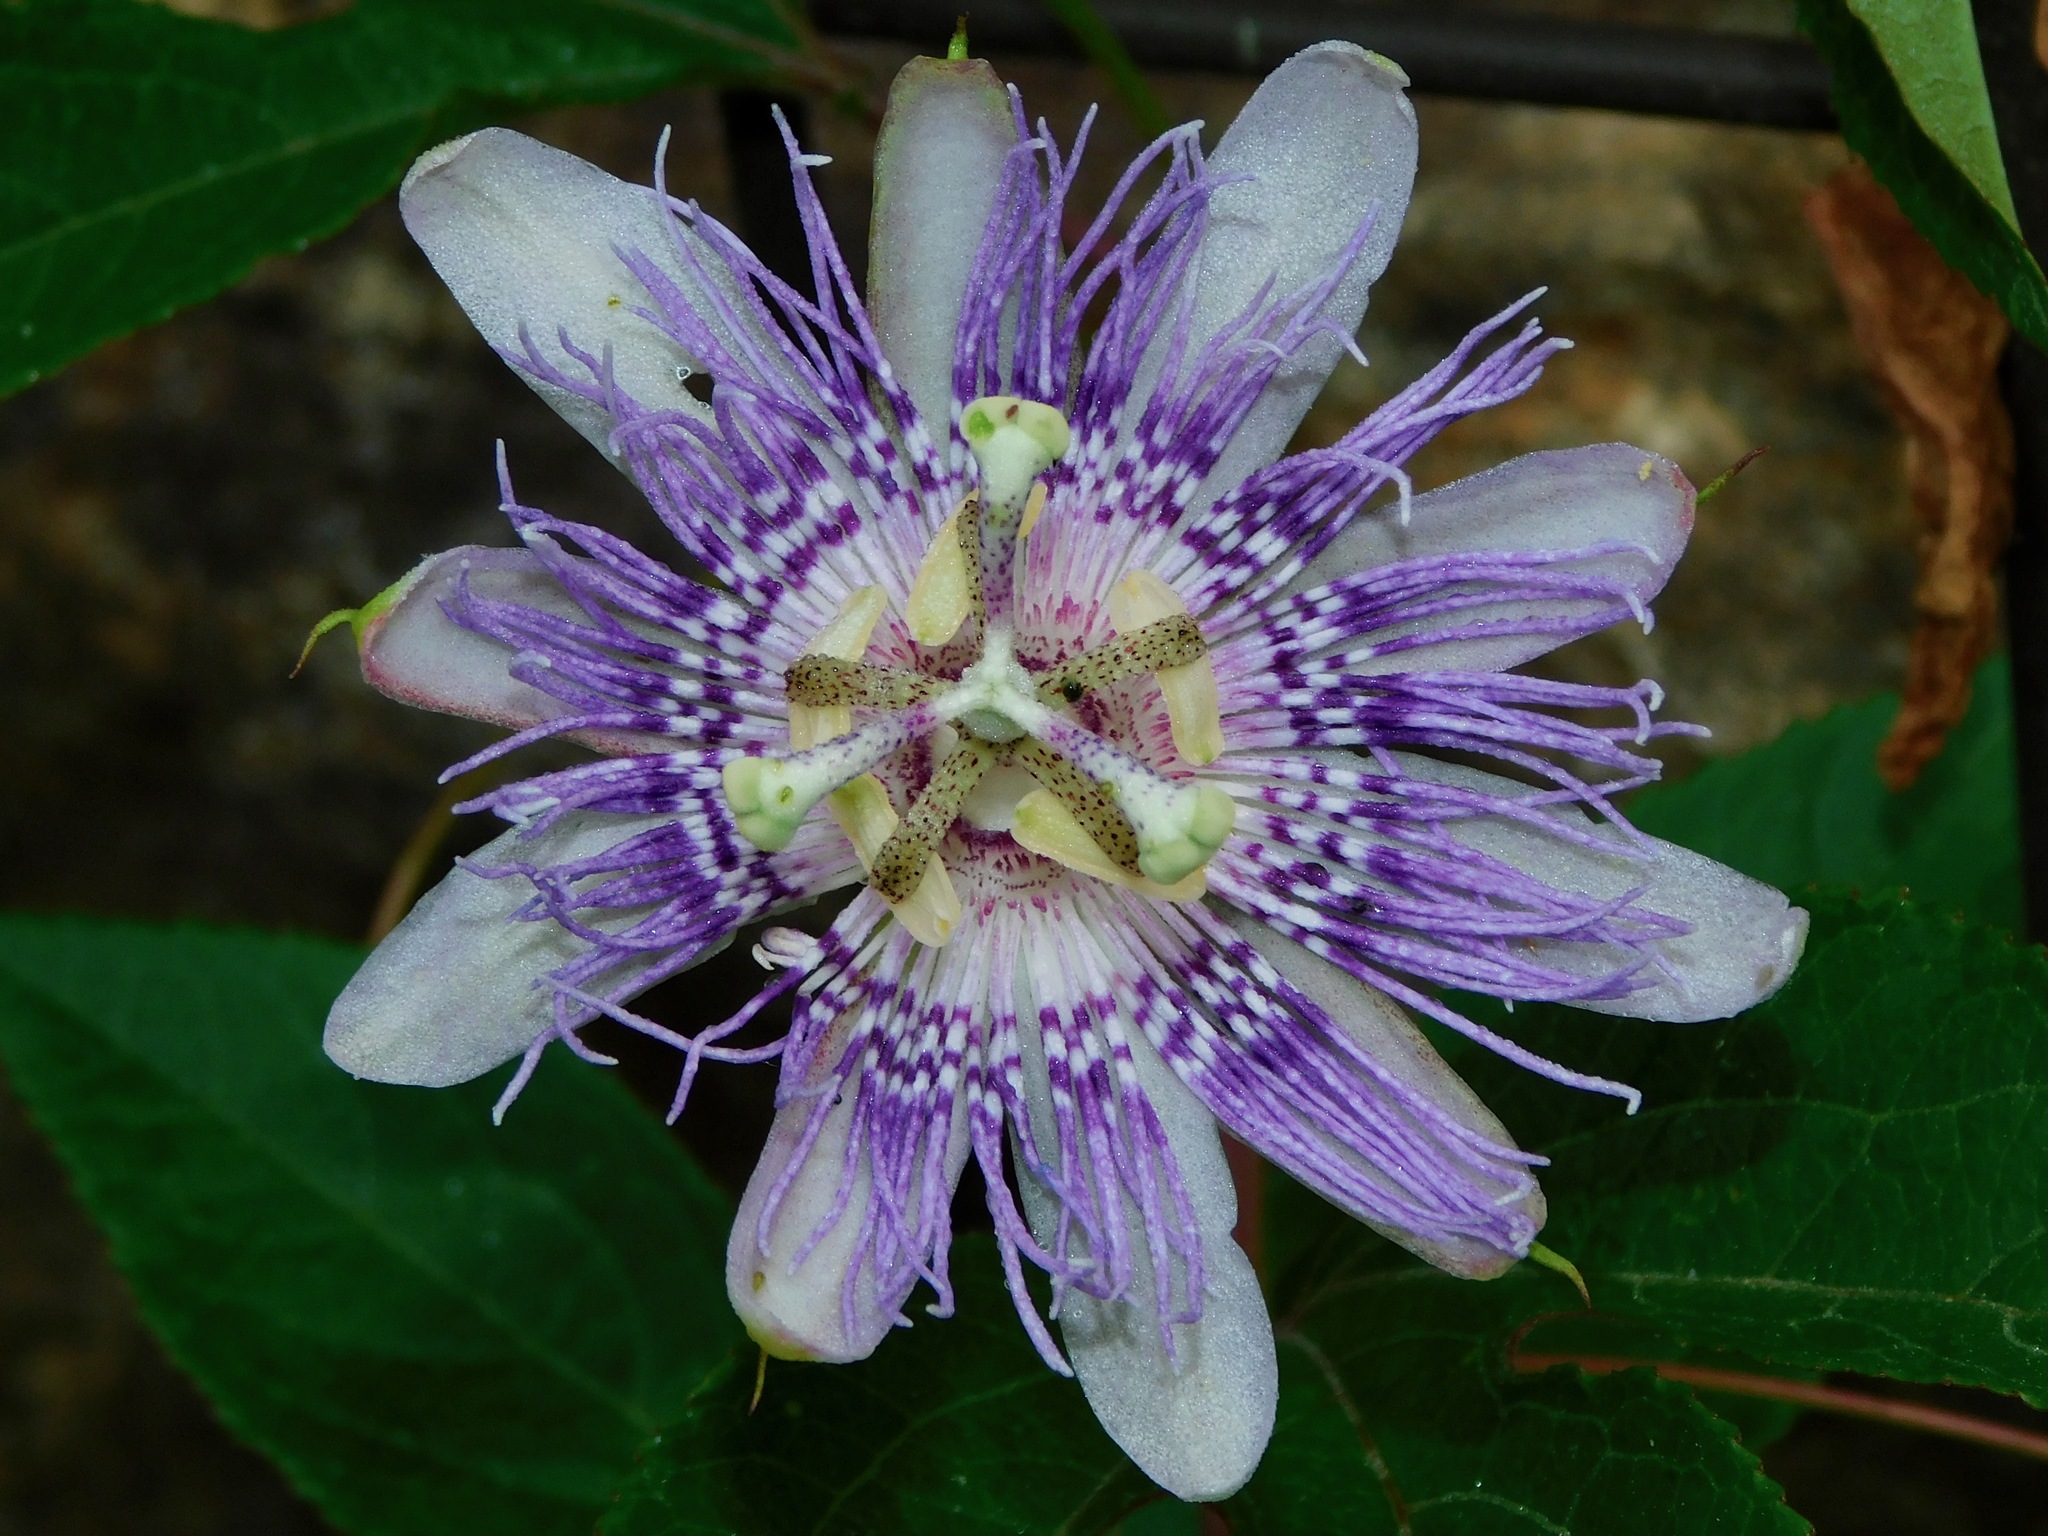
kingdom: Plantae
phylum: Tracheophyta
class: Magnoliopsida
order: Malpighiales
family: Passifloraceae
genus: Passiflora
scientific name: Passiflora incarnata
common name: Apricot-vine
